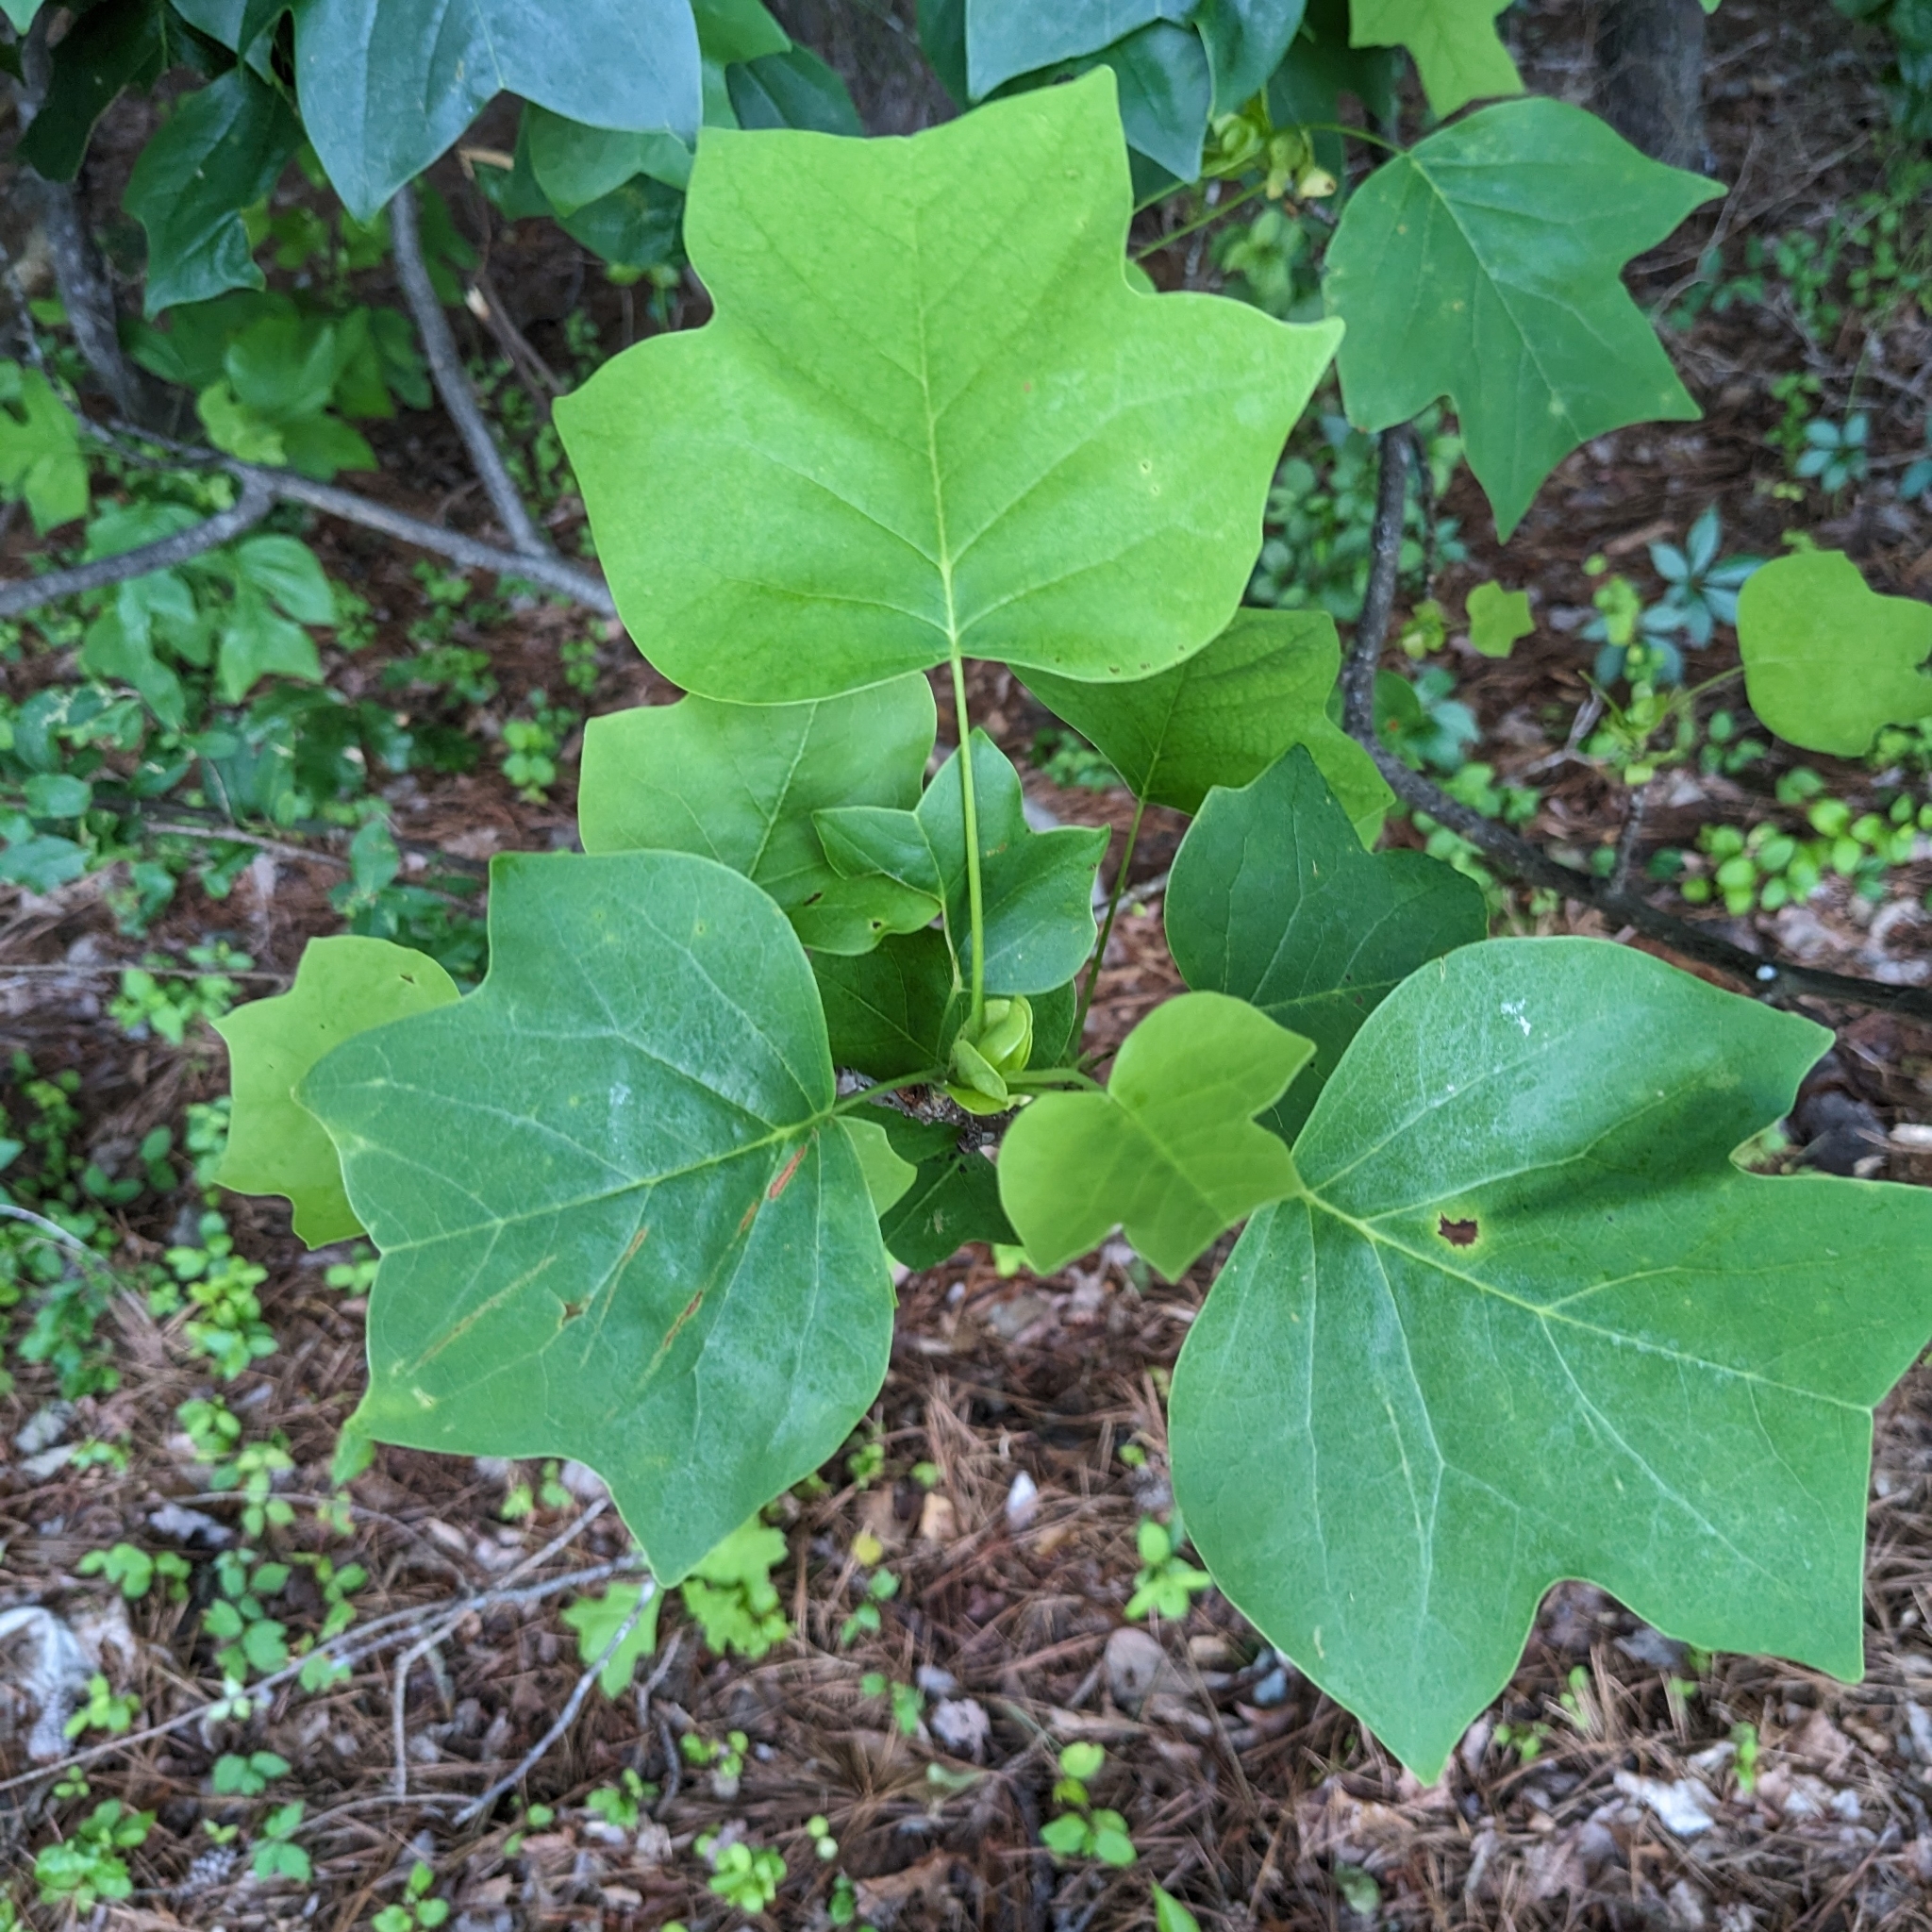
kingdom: Plantae
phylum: Tracheophyta
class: Magnoliopsida
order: Magnoliales
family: Magnoliaceae
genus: Liriodendron
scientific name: Liriodendron tulipifera
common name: Tulip tree
